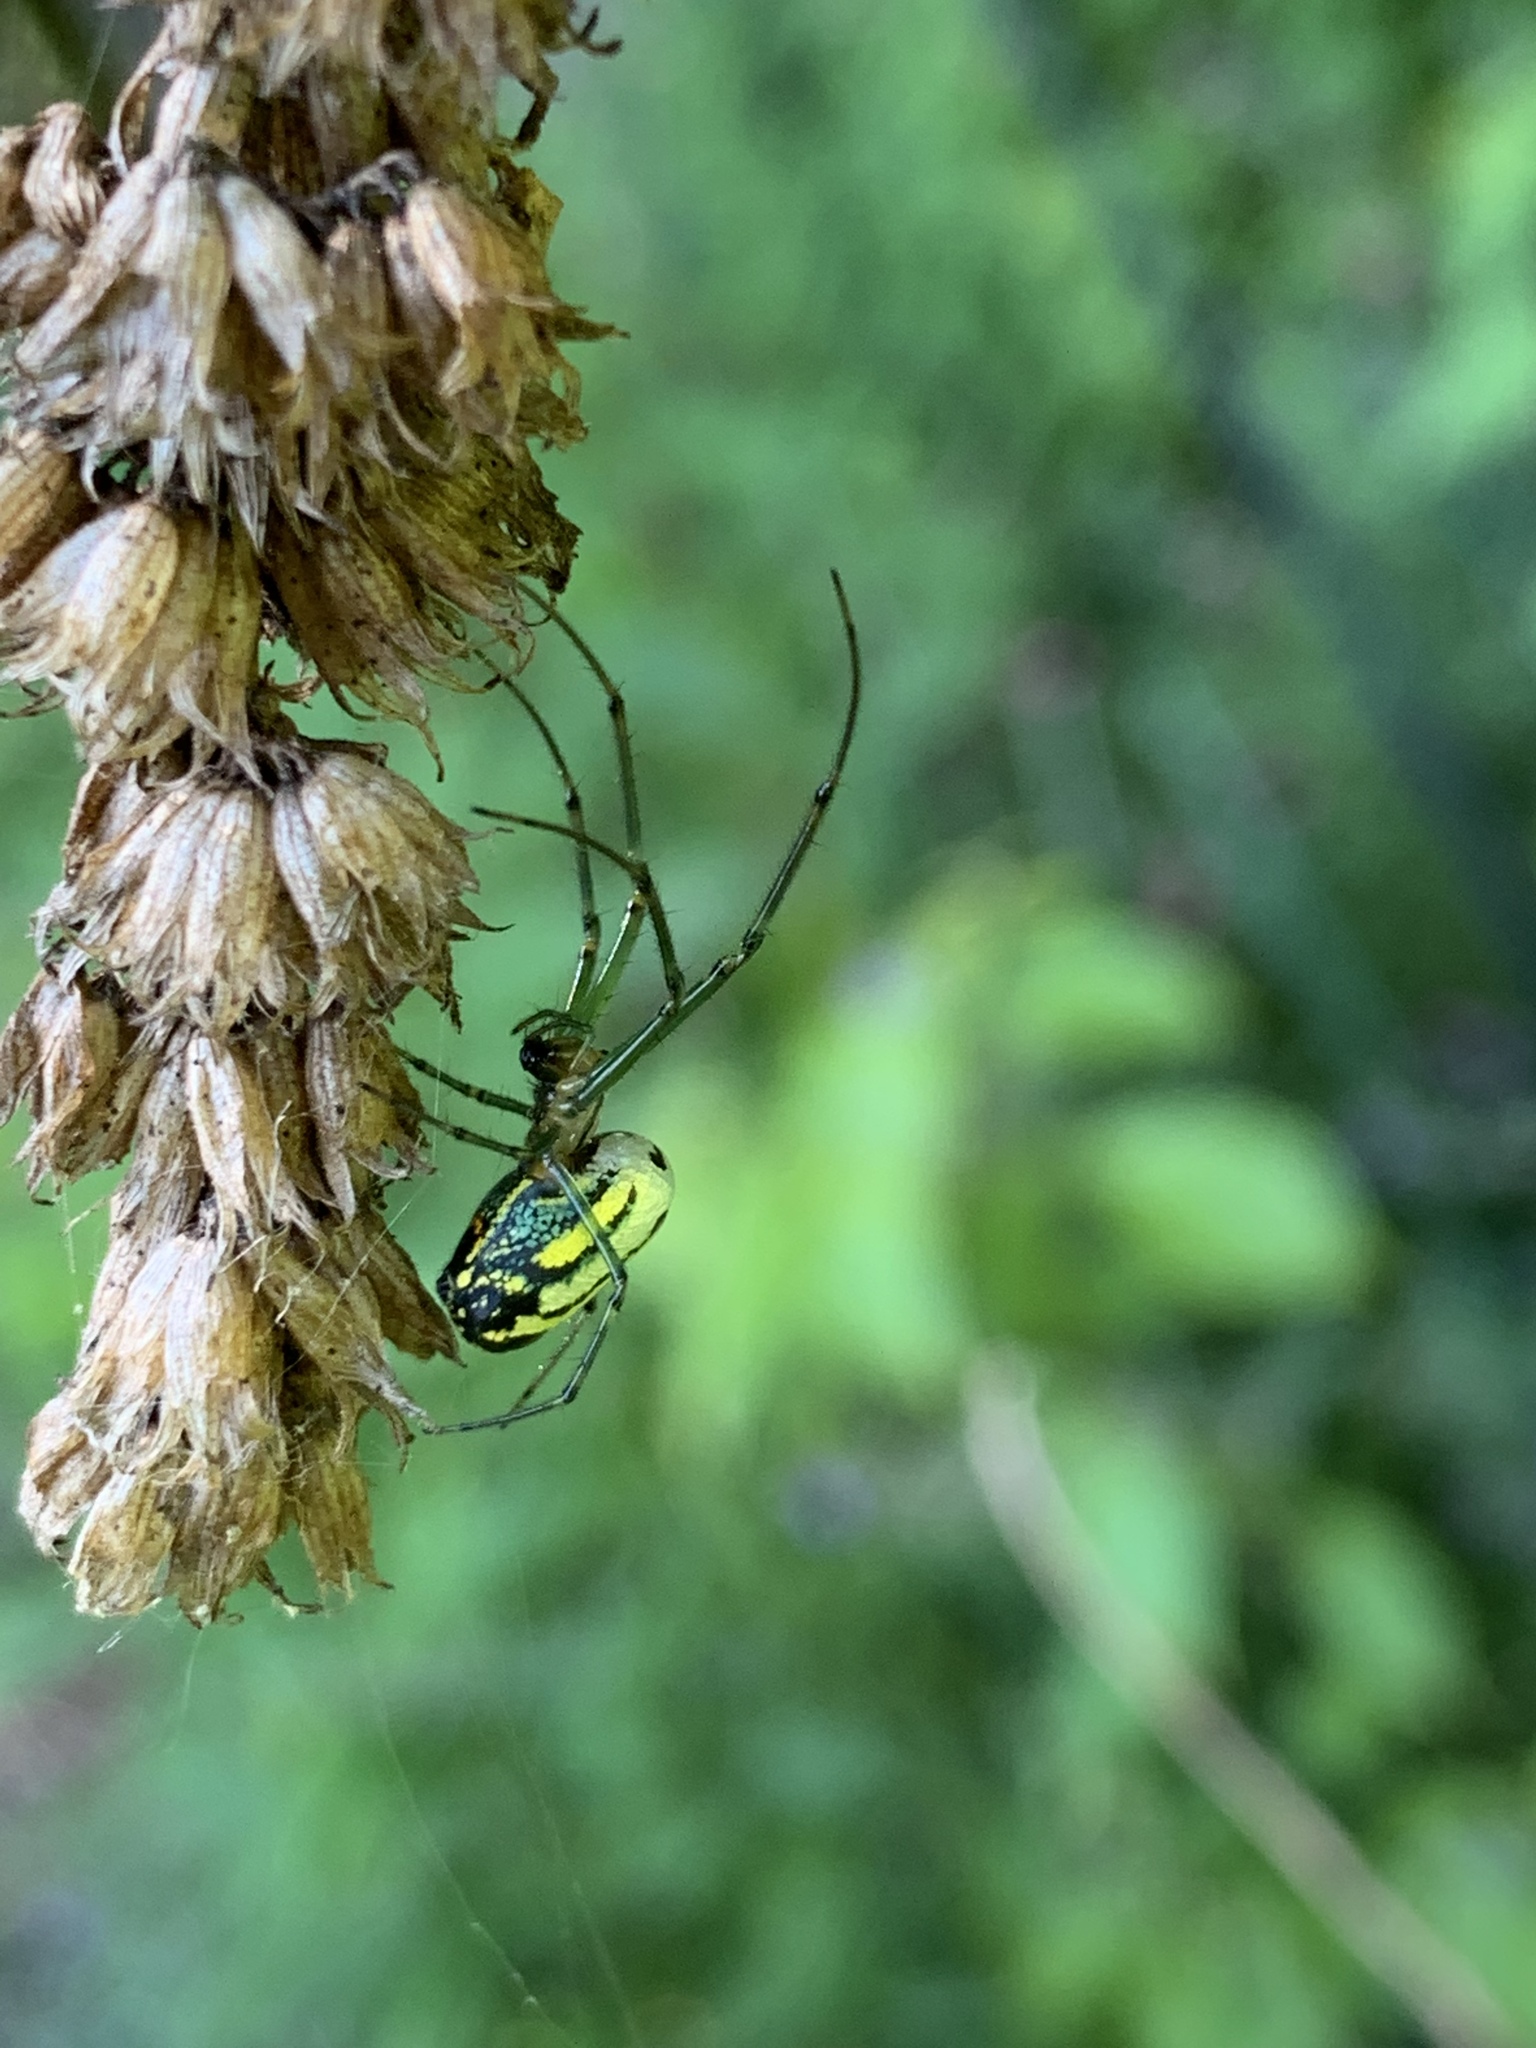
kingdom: Animalia
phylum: Arthropoda
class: Arachnida
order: Araneae
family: Tetragnathidae
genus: Leucauge
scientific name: Leucauge venusta
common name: Longjawed orb weavers
